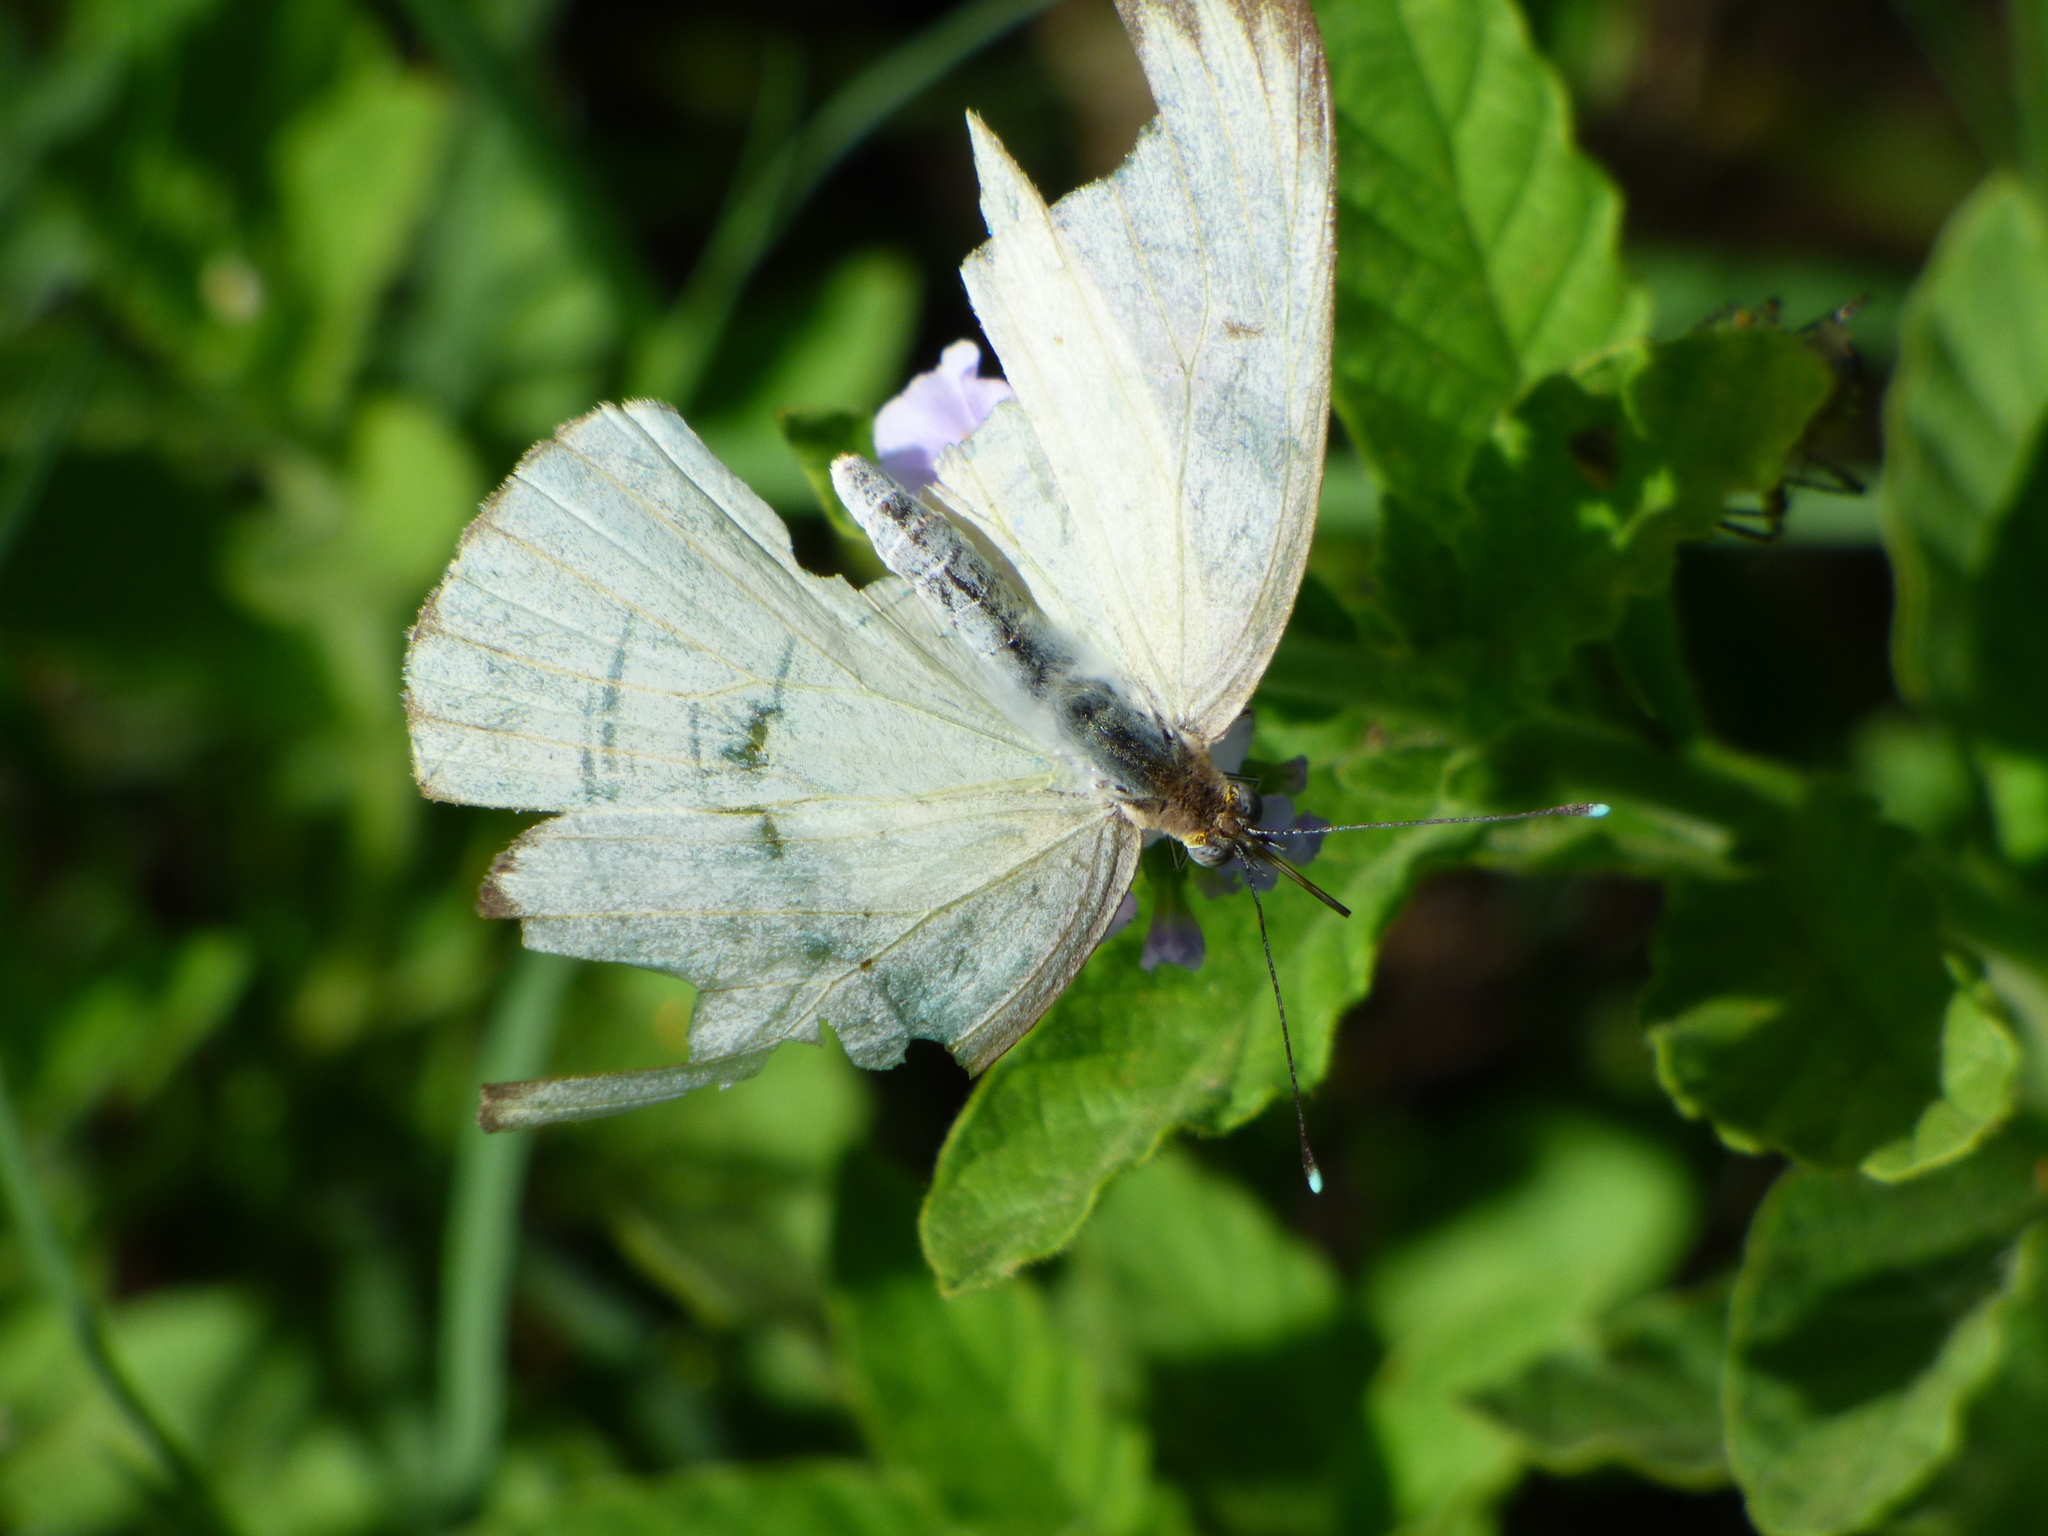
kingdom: Animalia
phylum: Arthropoda
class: Insecta
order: Lepidoptera
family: Pieridae
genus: Ascia
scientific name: Ascia monuste
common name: Great southern white
